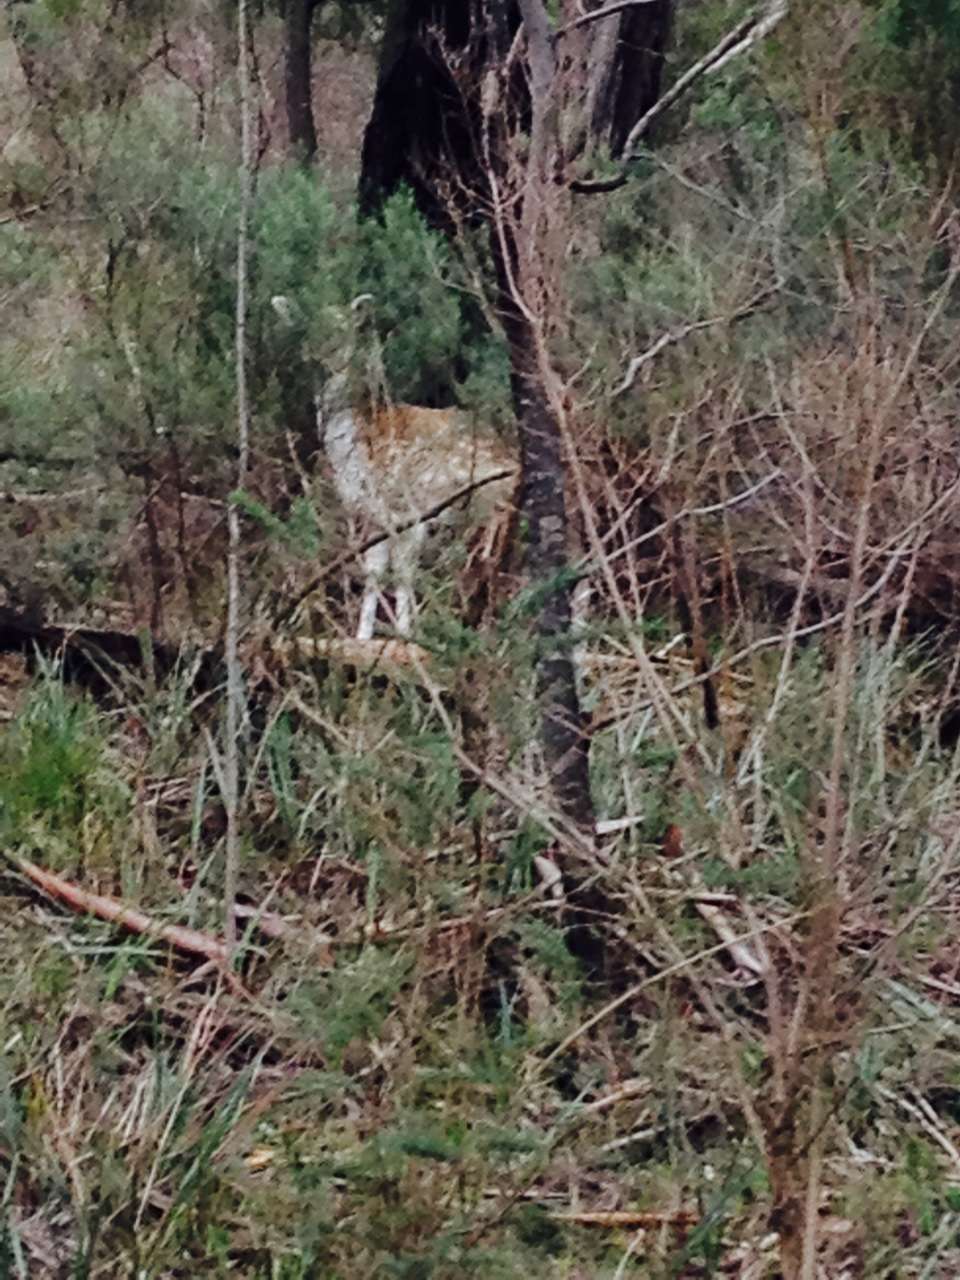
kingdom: Animalia
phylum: Chordata
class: Mammalia
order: Artiodactyla
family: Cervidae
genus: Dama
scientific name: Dama dama
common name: Fallow deer
